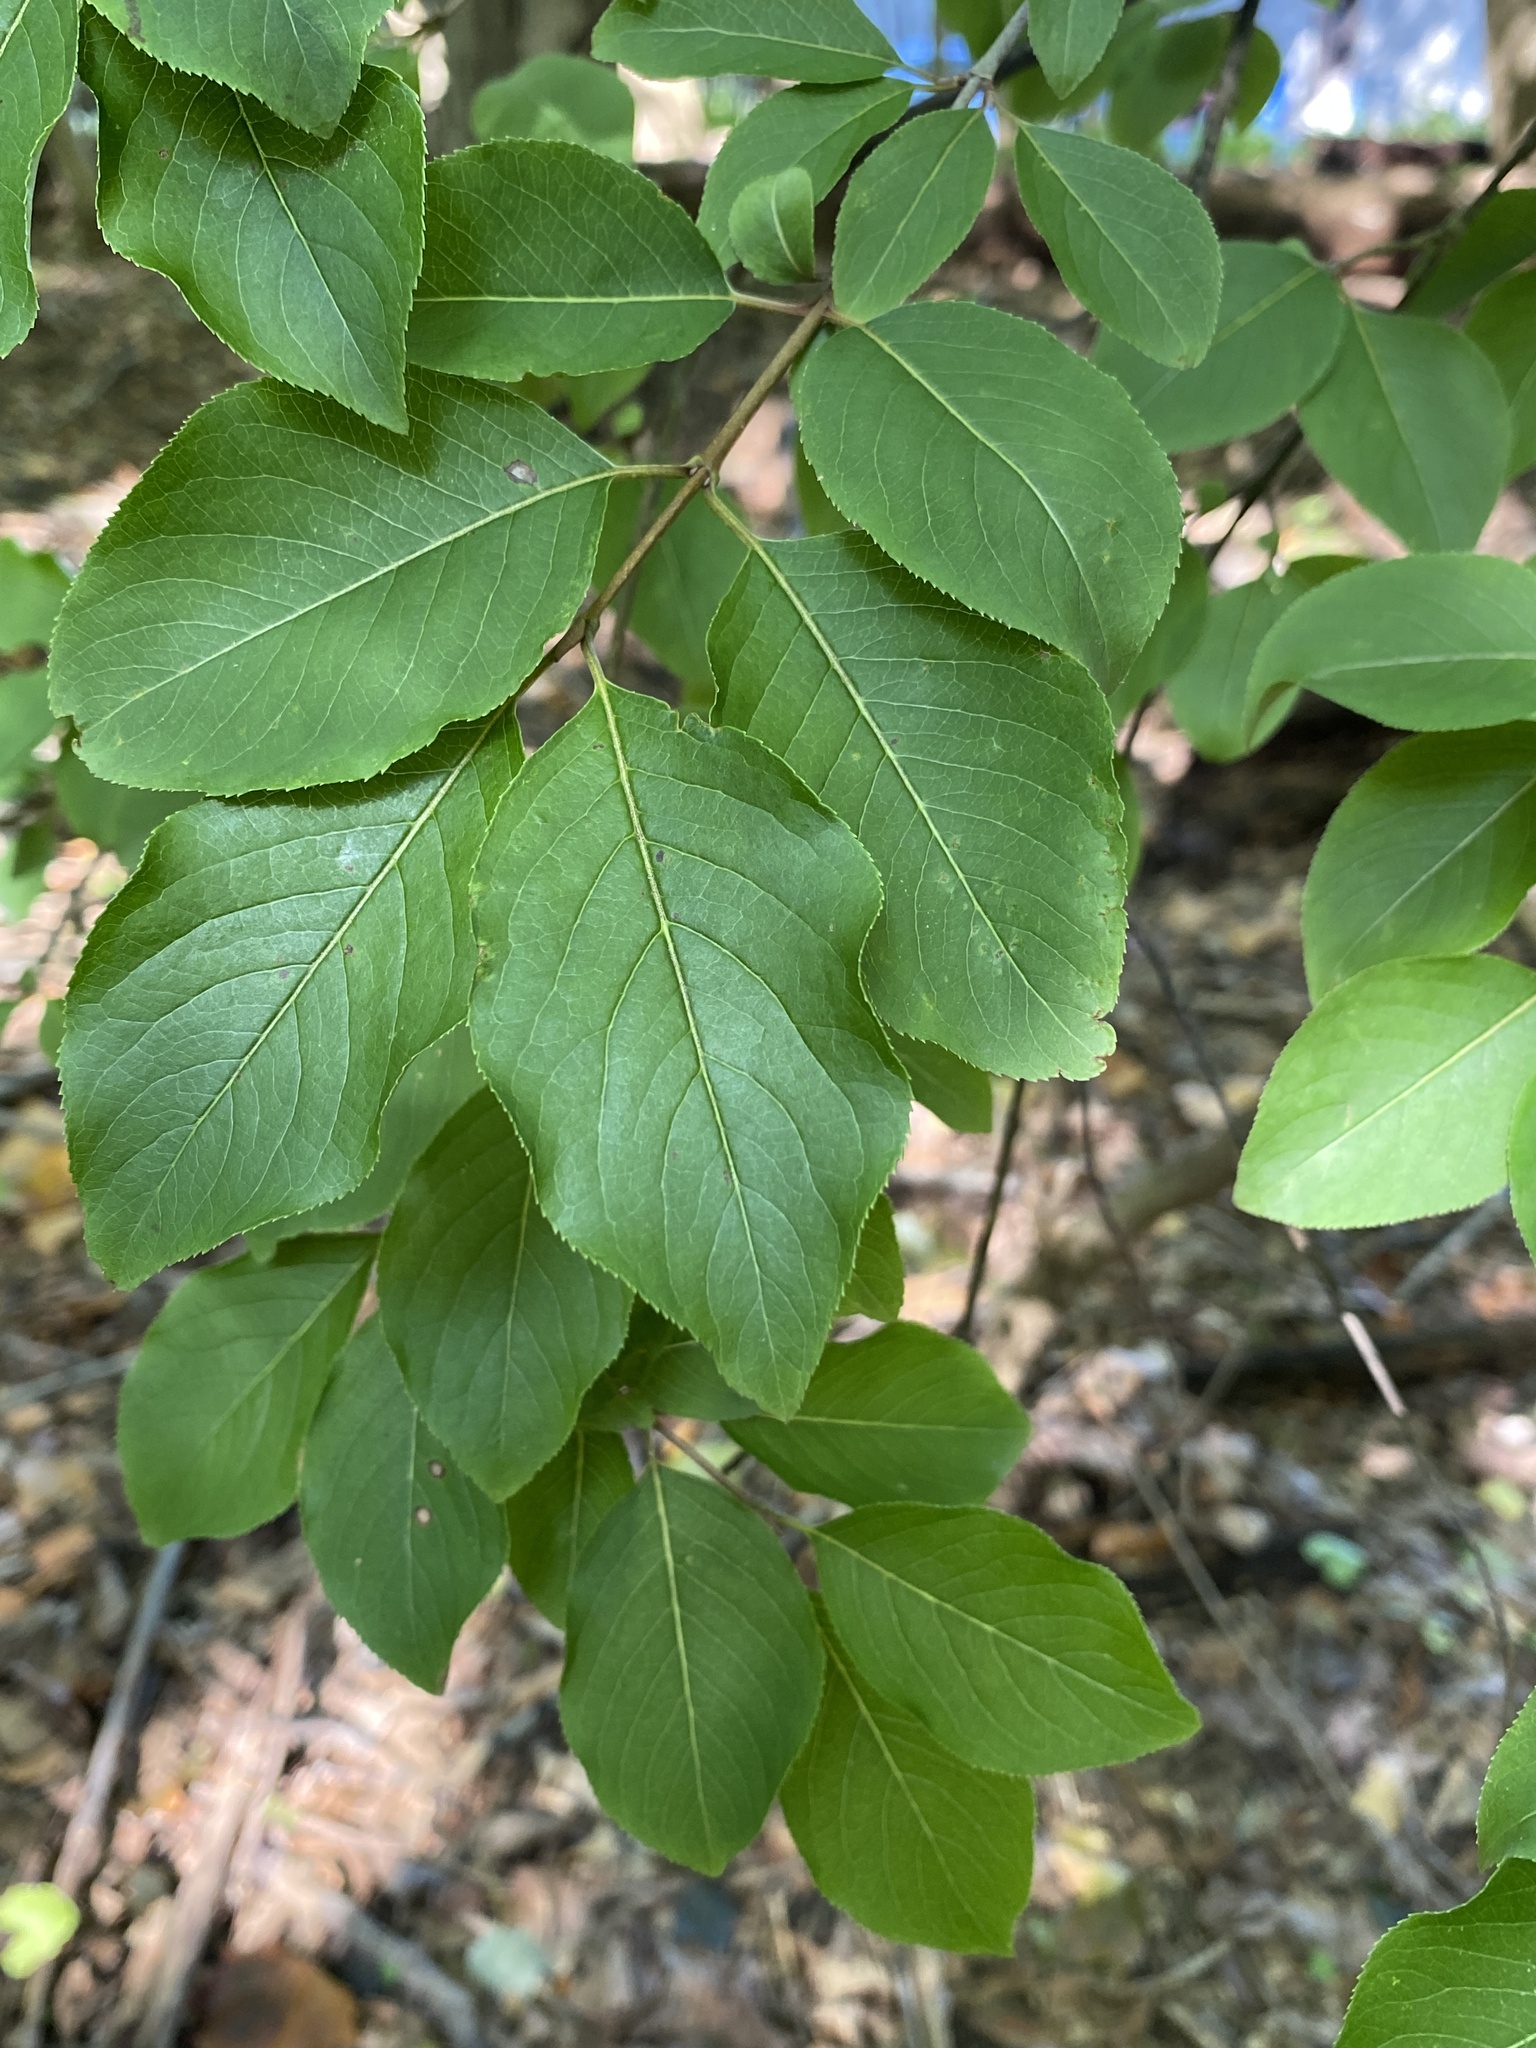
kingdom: Plantae
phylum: Tracheophyta
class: Magnoliopsida
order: Dipsacales
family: Viburnaceae
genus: Viburnum
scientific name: Viburnum prunifolium
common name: Black haw
